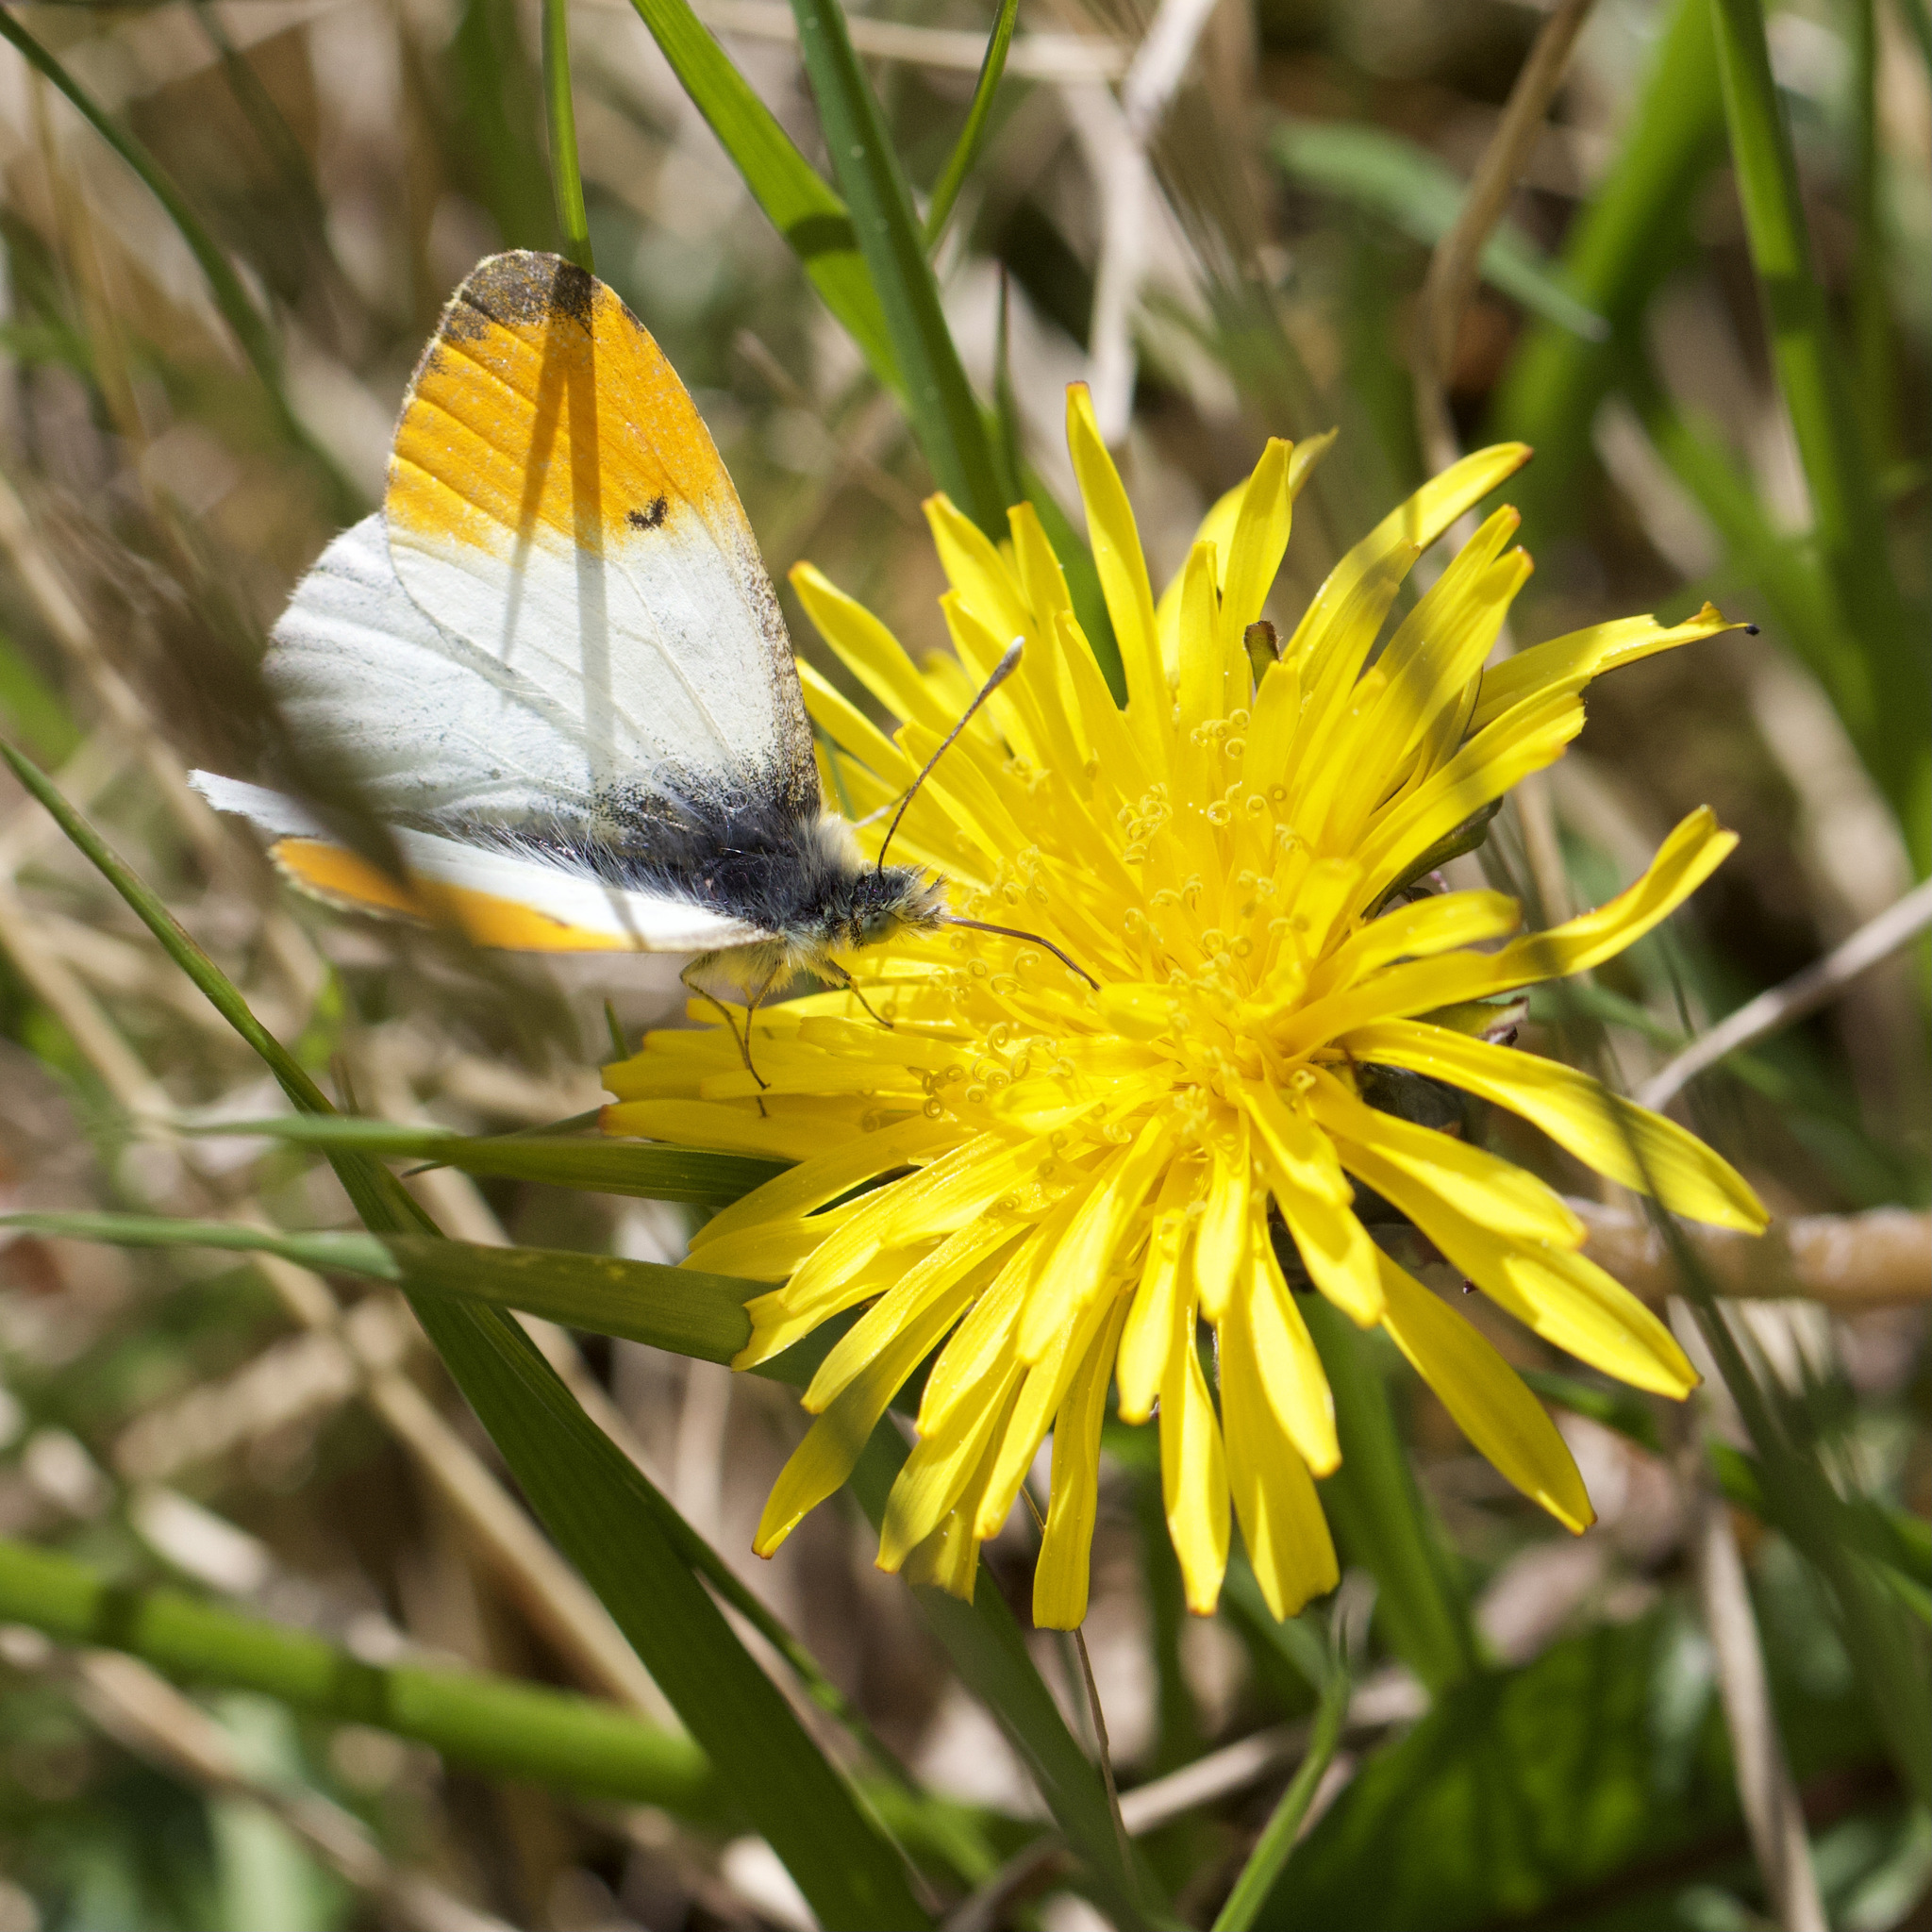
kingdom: Animalia
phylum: Arthropoda
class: Insecta
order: Lepidoptera
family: Pieridae
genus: Anthocharis
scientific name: Anthocharis cardamines
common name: Orange-tip
